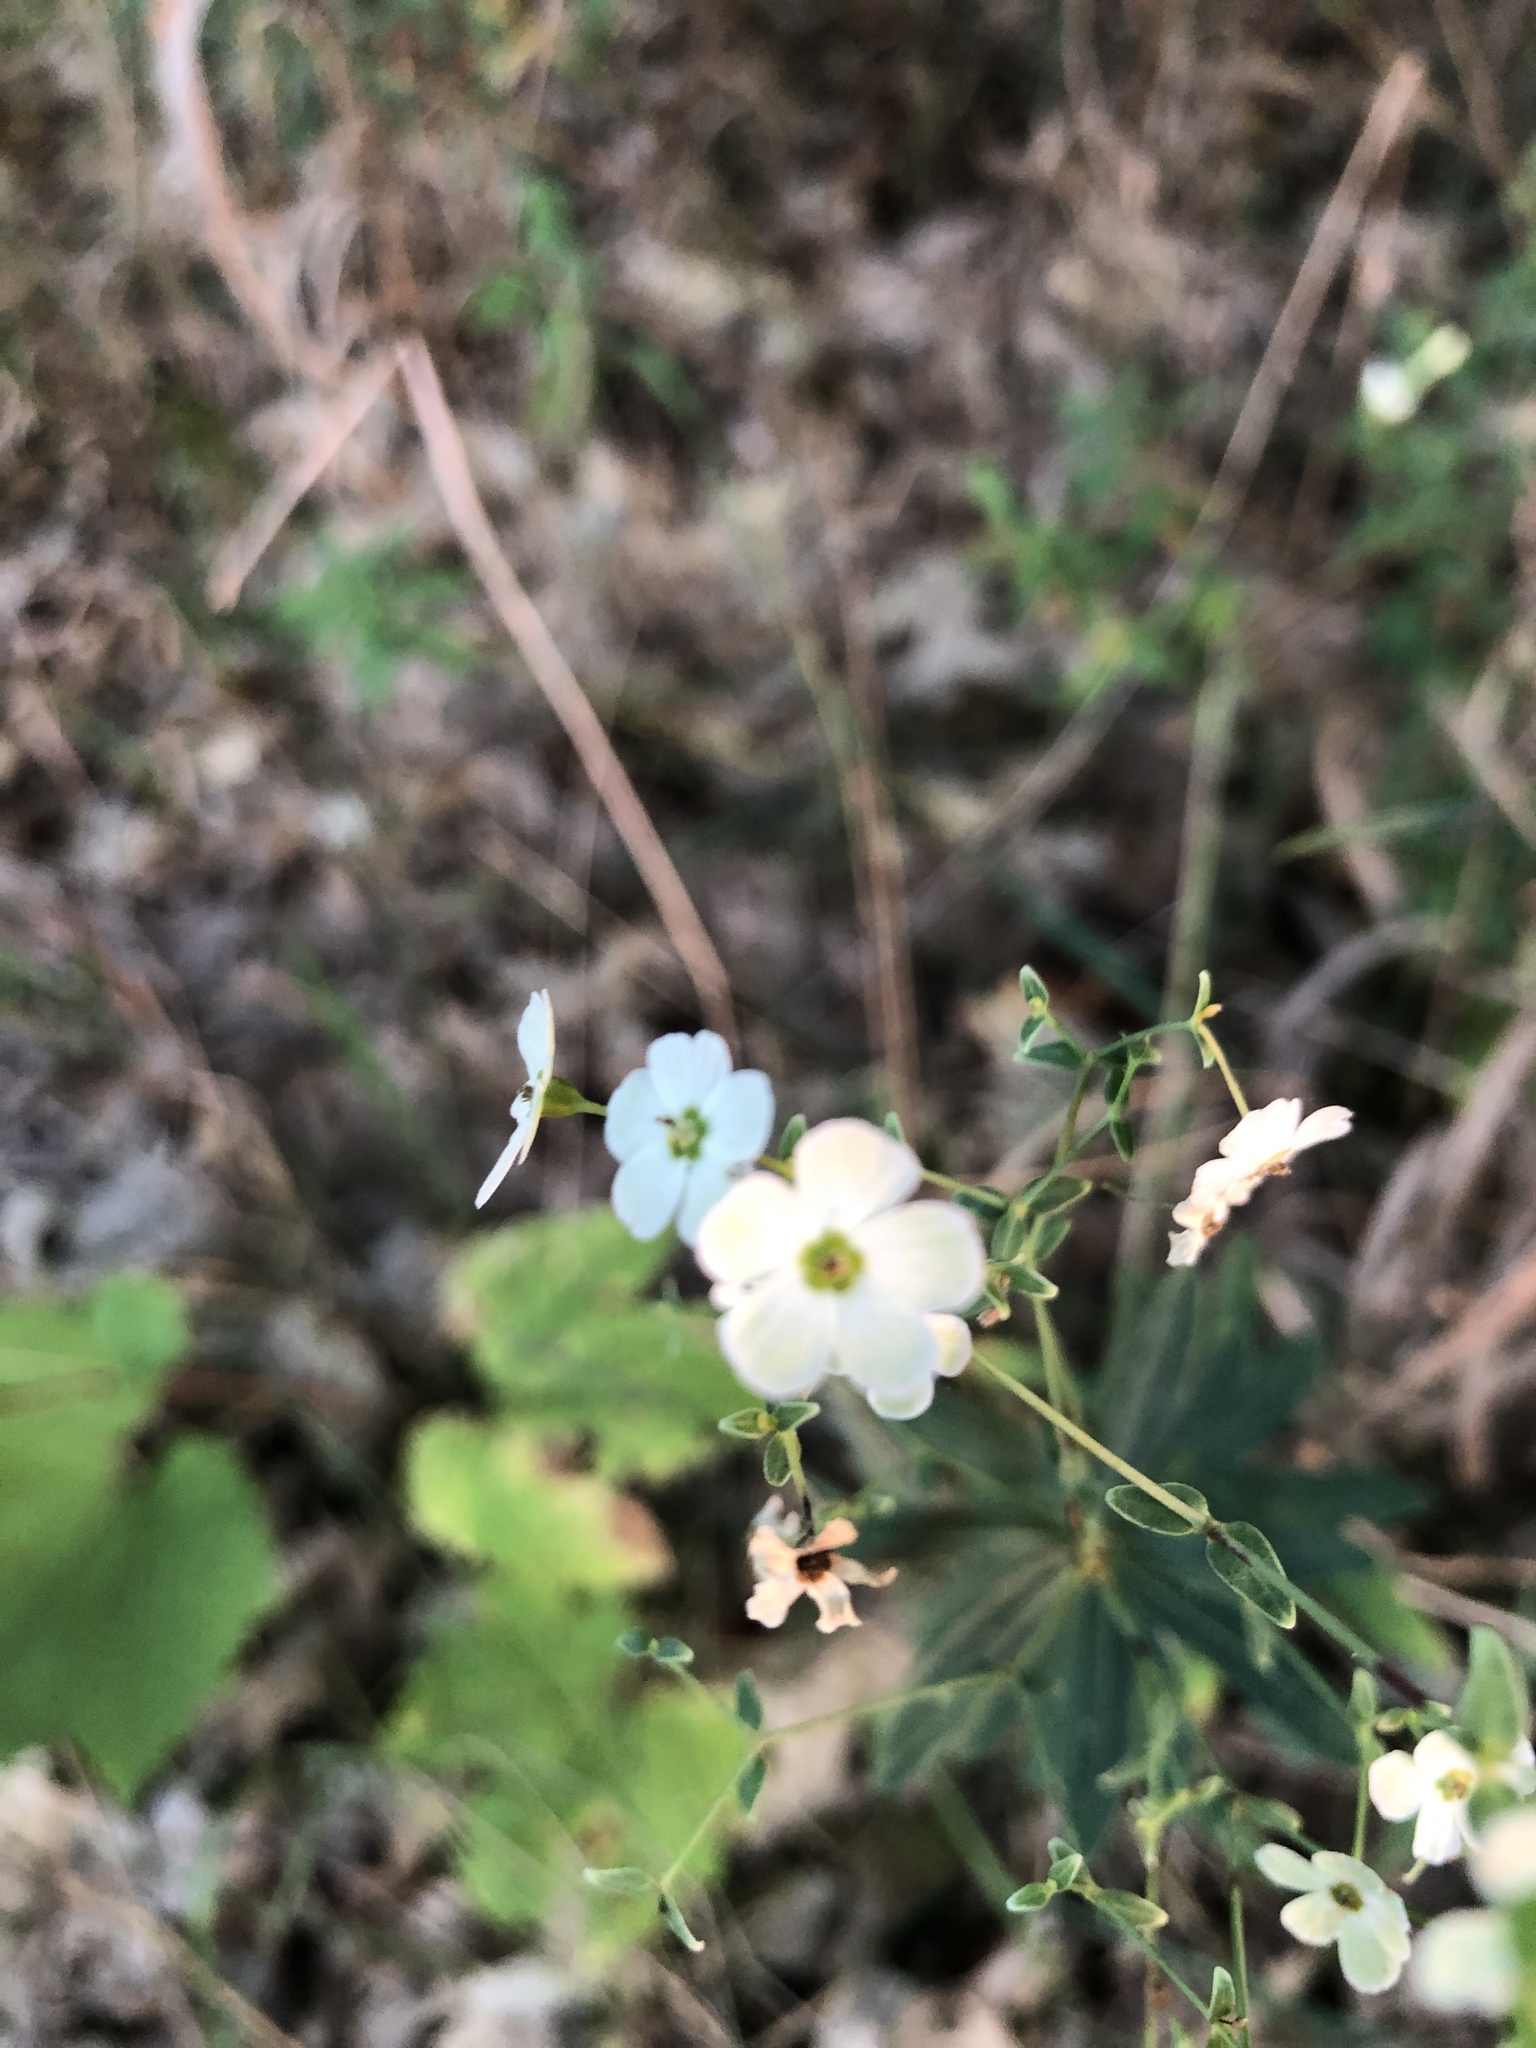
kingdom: Plantae
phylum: Tracheophyta
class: Magnoliopsida
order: Malpighiales
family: Euphorbiaceae
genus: Euphorbia
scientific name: Euphorbia corollata
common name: Flowering spurge
